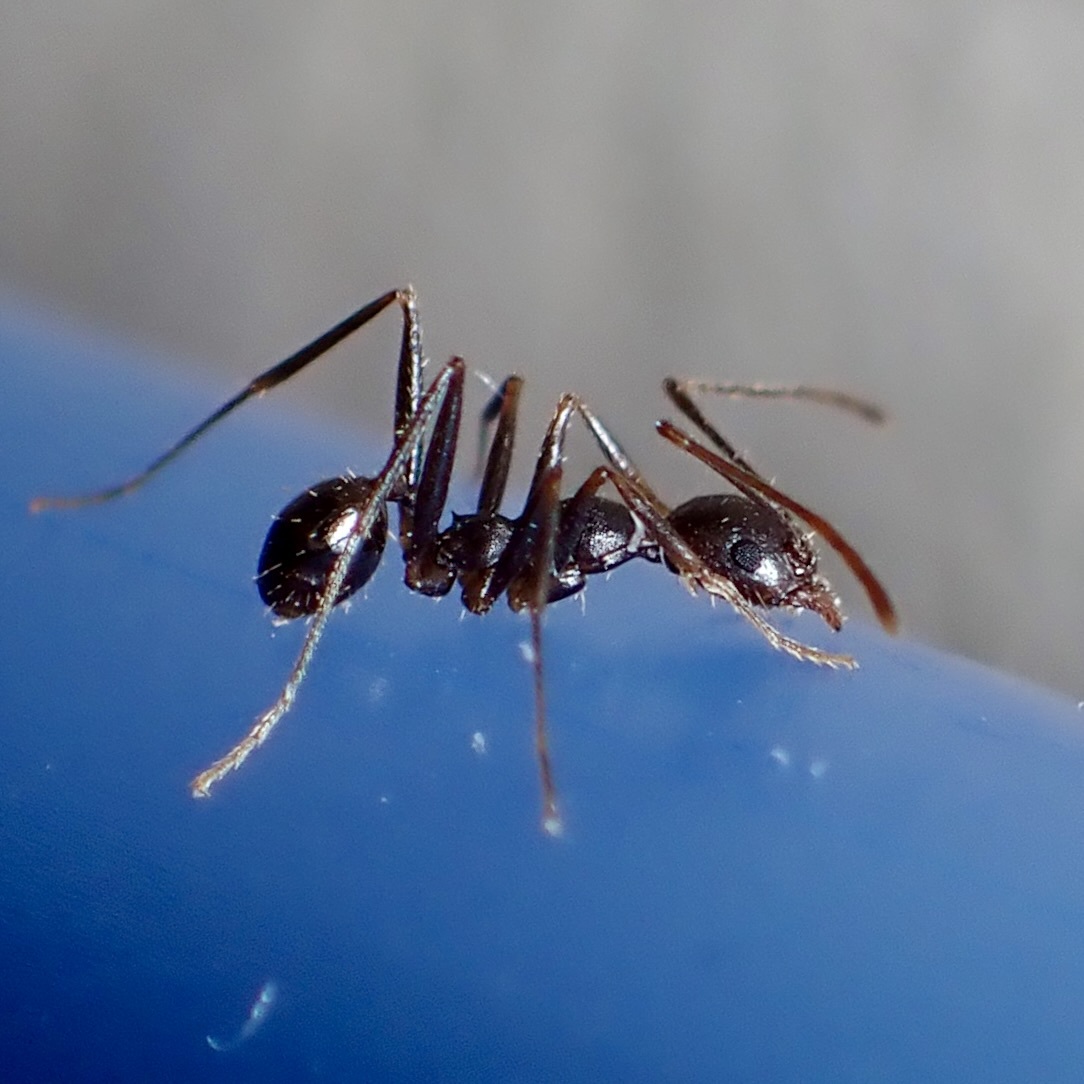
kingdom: Animalia
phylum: Arthropoda
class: Insecta
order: Hymenoptera
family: Formicidae
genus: Pheidole
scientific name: Pheidole portalensis
